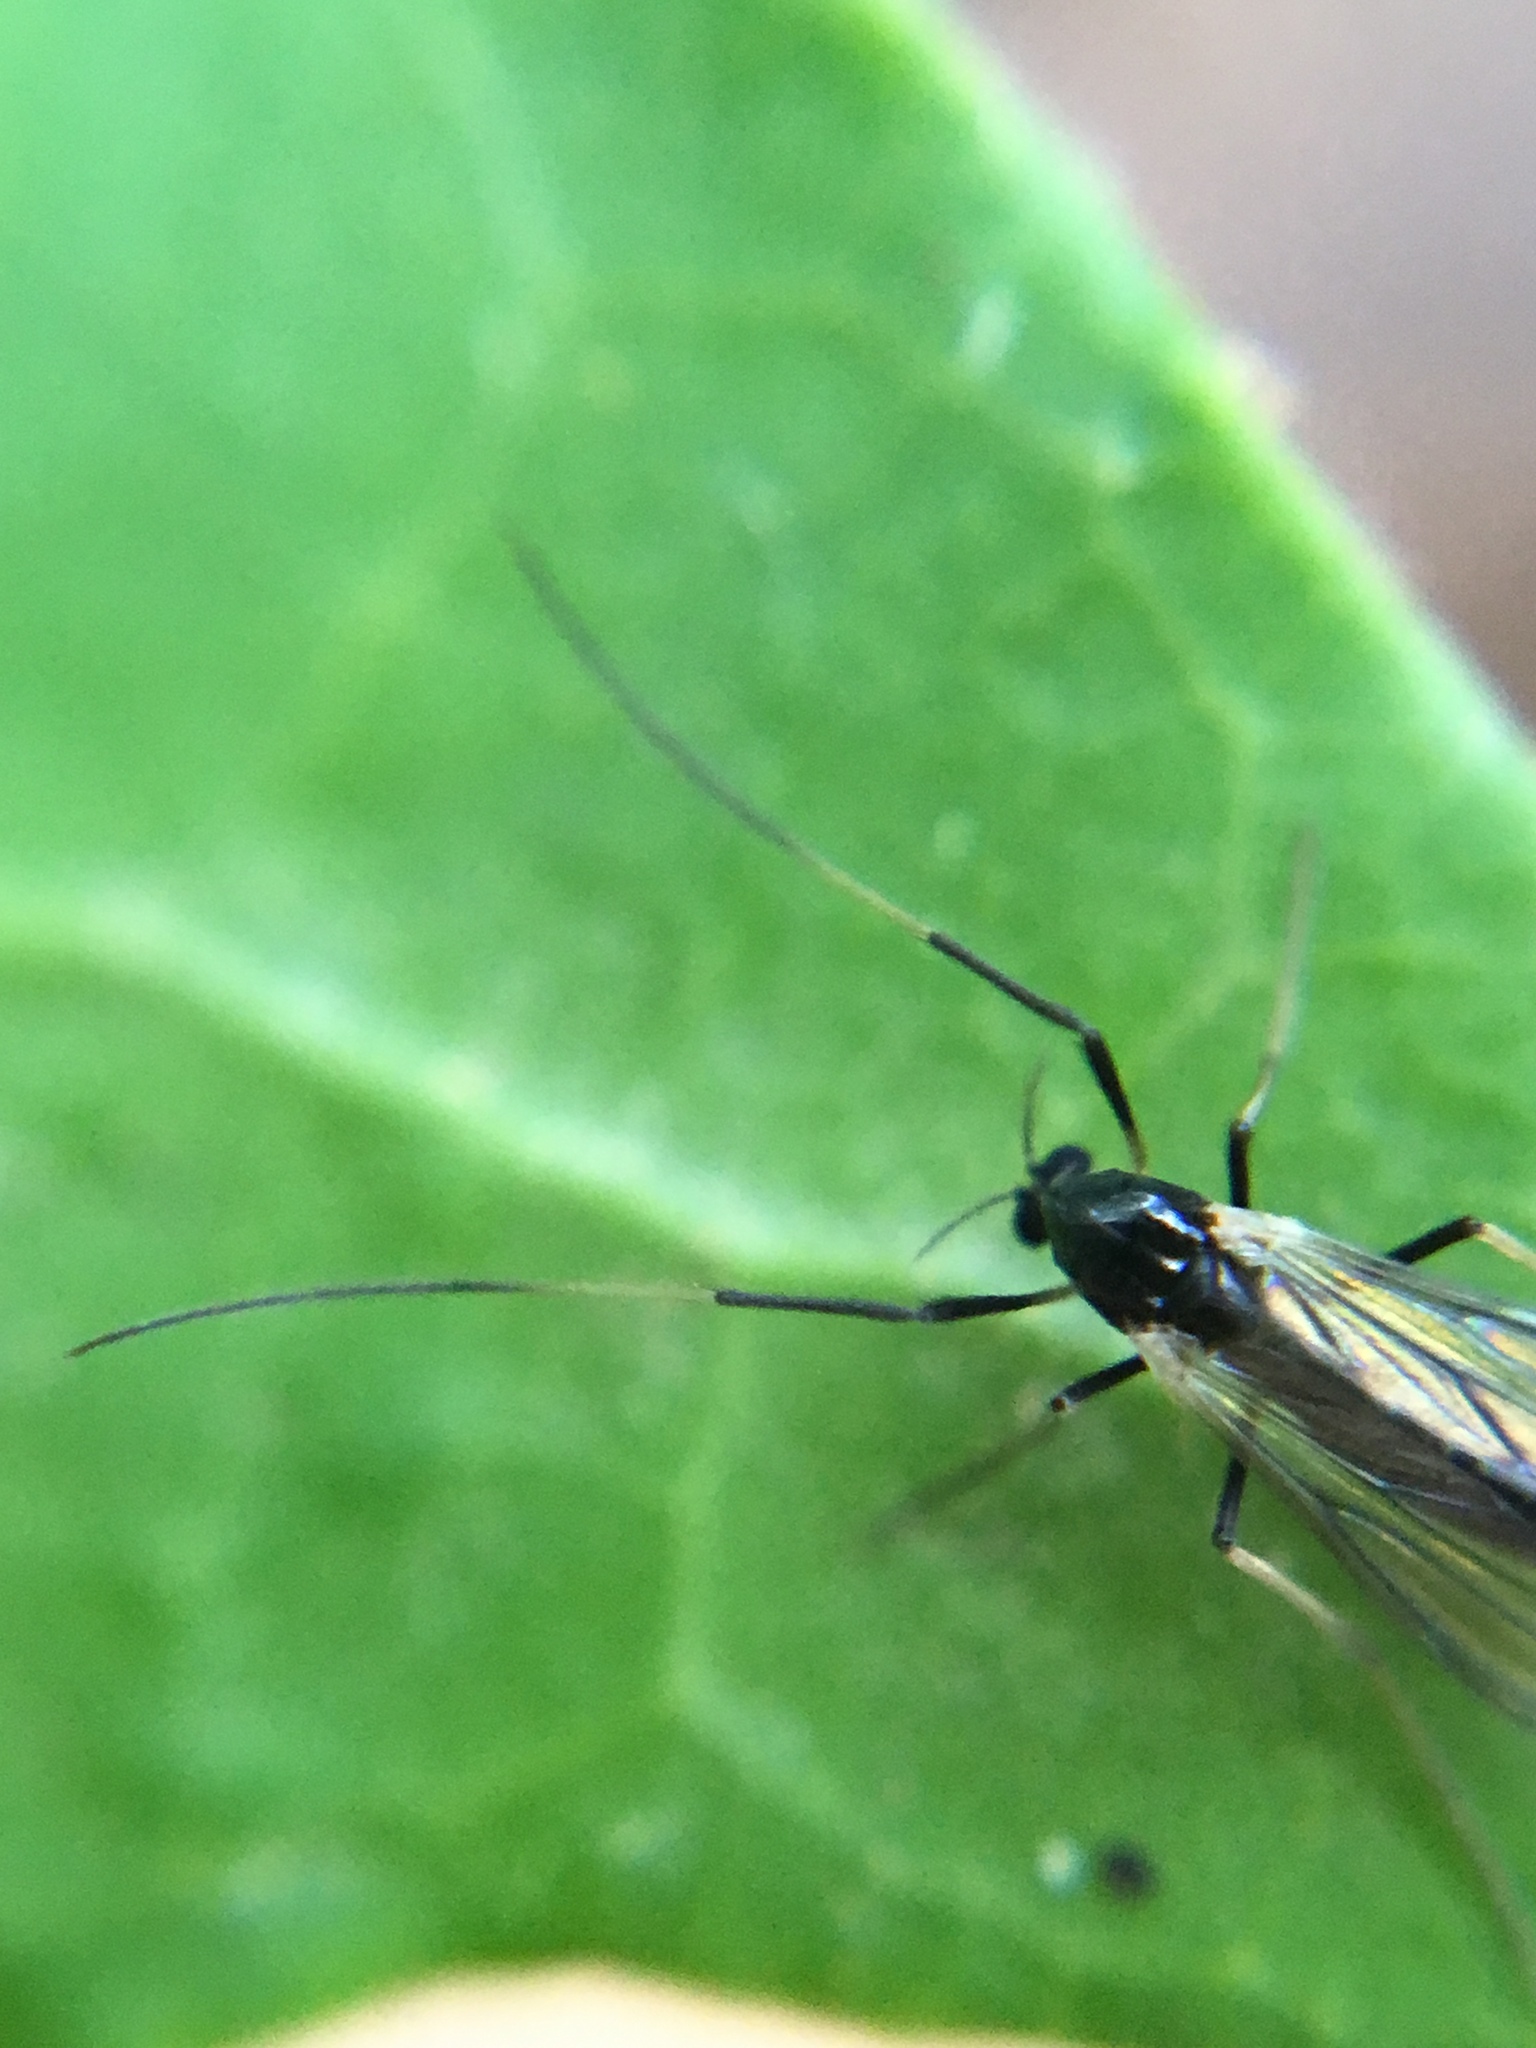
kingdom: Animalia
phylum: Arthropoda
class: Insecta
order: Diptera
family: Chironomidae
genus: Paratendipes
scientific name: Paratendipes albimanus
